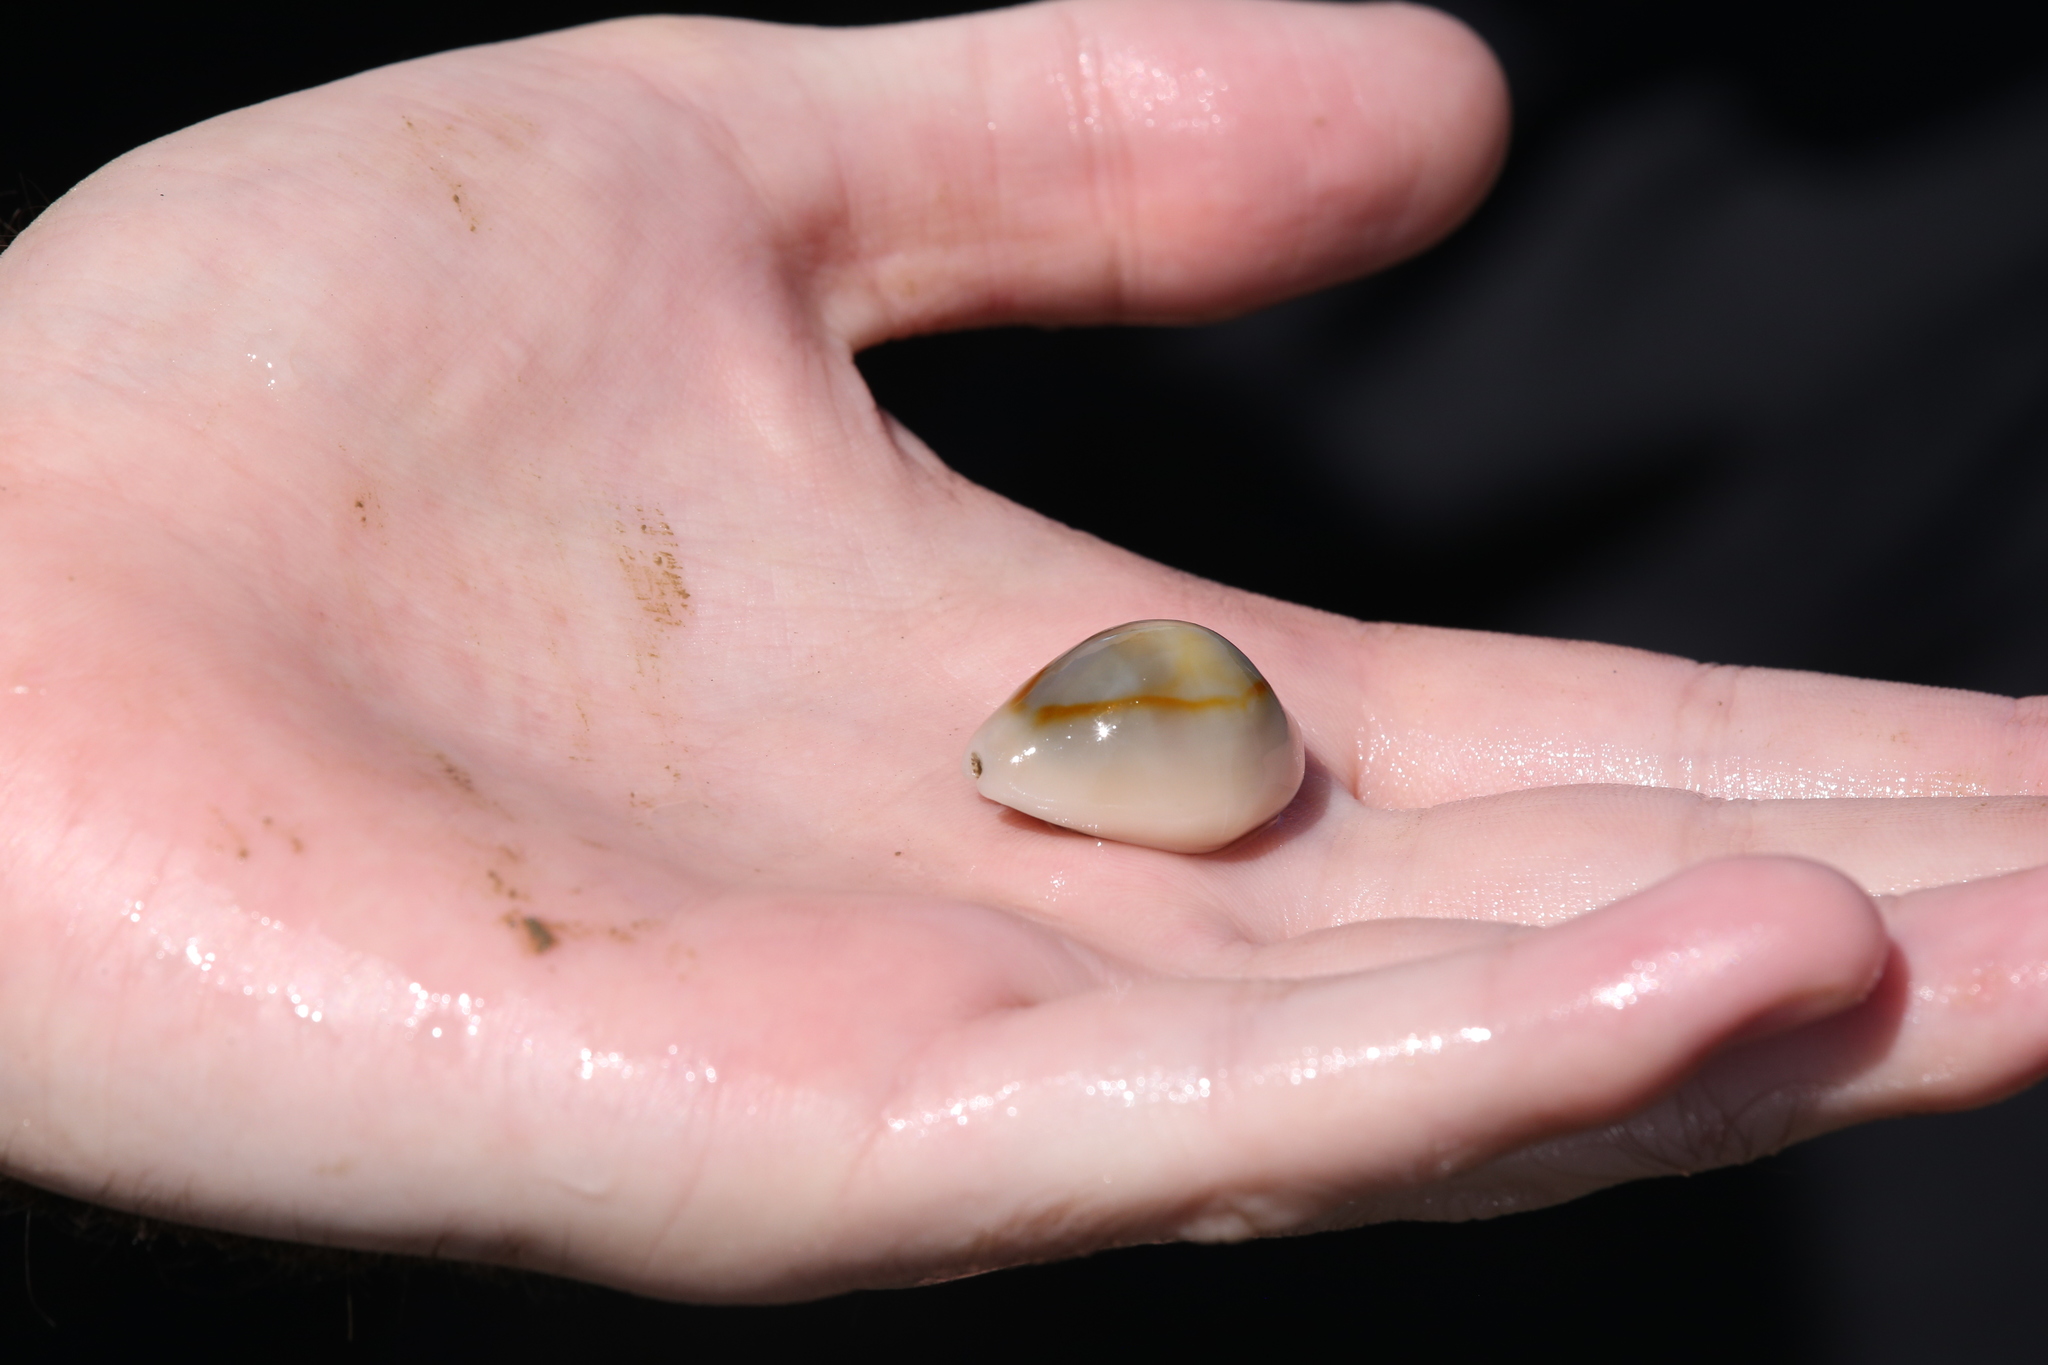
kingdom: Animalia
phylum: Mollusca
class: Gastropoda
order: Littorinimorpha
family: Cypraeidae
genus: Monetaria
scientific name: Monetaria annulus
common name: Ring cowrie
